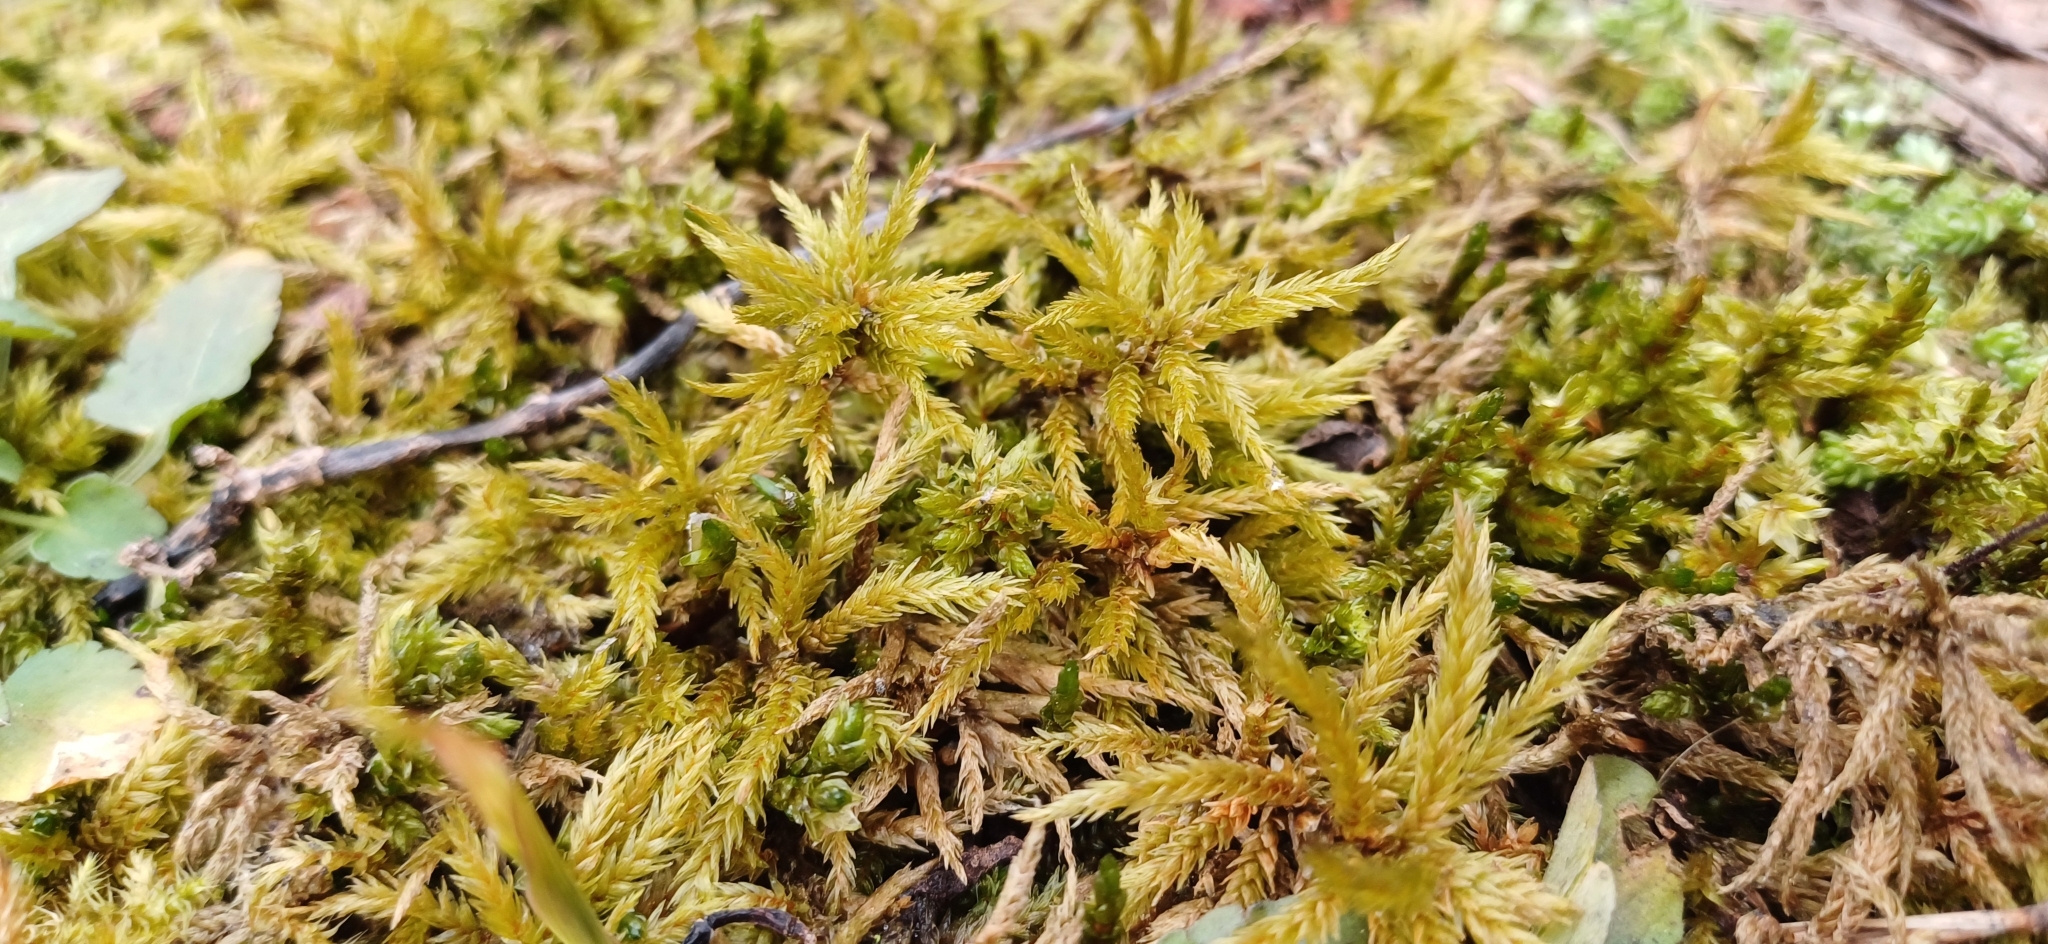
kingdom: Plantae
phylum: Bryophyta
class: Bryopsida
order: Hypnales
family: Climaciaceae
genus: Climacium
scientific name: Climacium dendroides
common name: Northern tree moss
